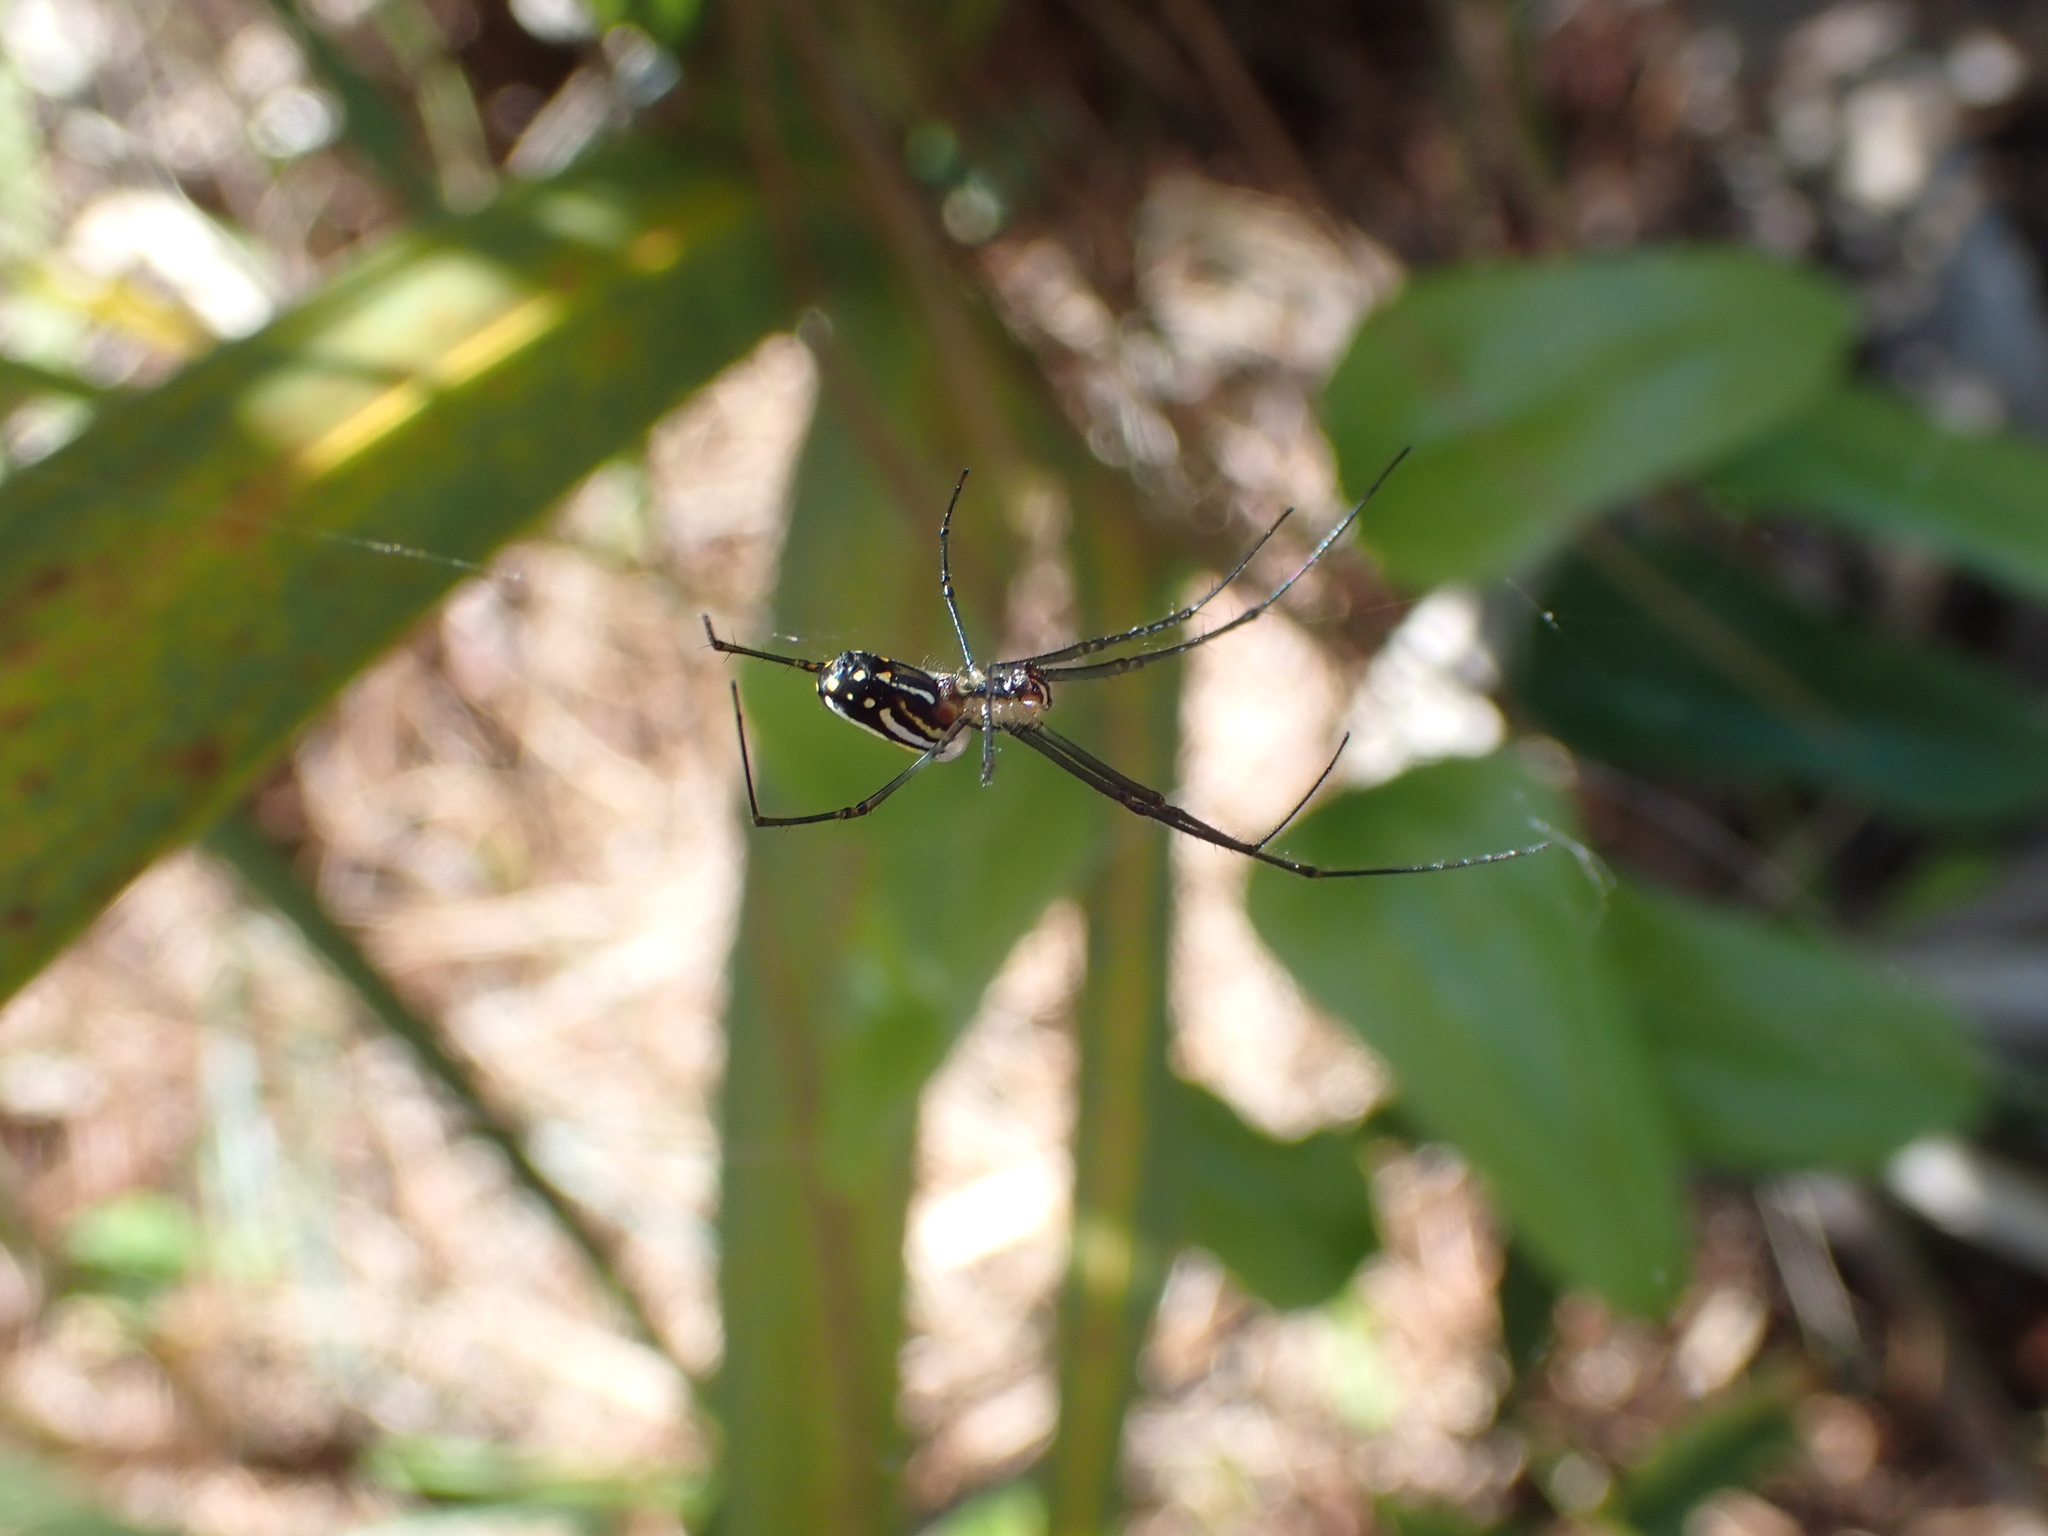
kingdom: Animalia
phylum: Arthropoda
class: Arachnida
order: Araneae
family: Tetragnathidae
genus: Leucauge
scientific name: Leucauge argyra
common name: Longjawed orb weavers
